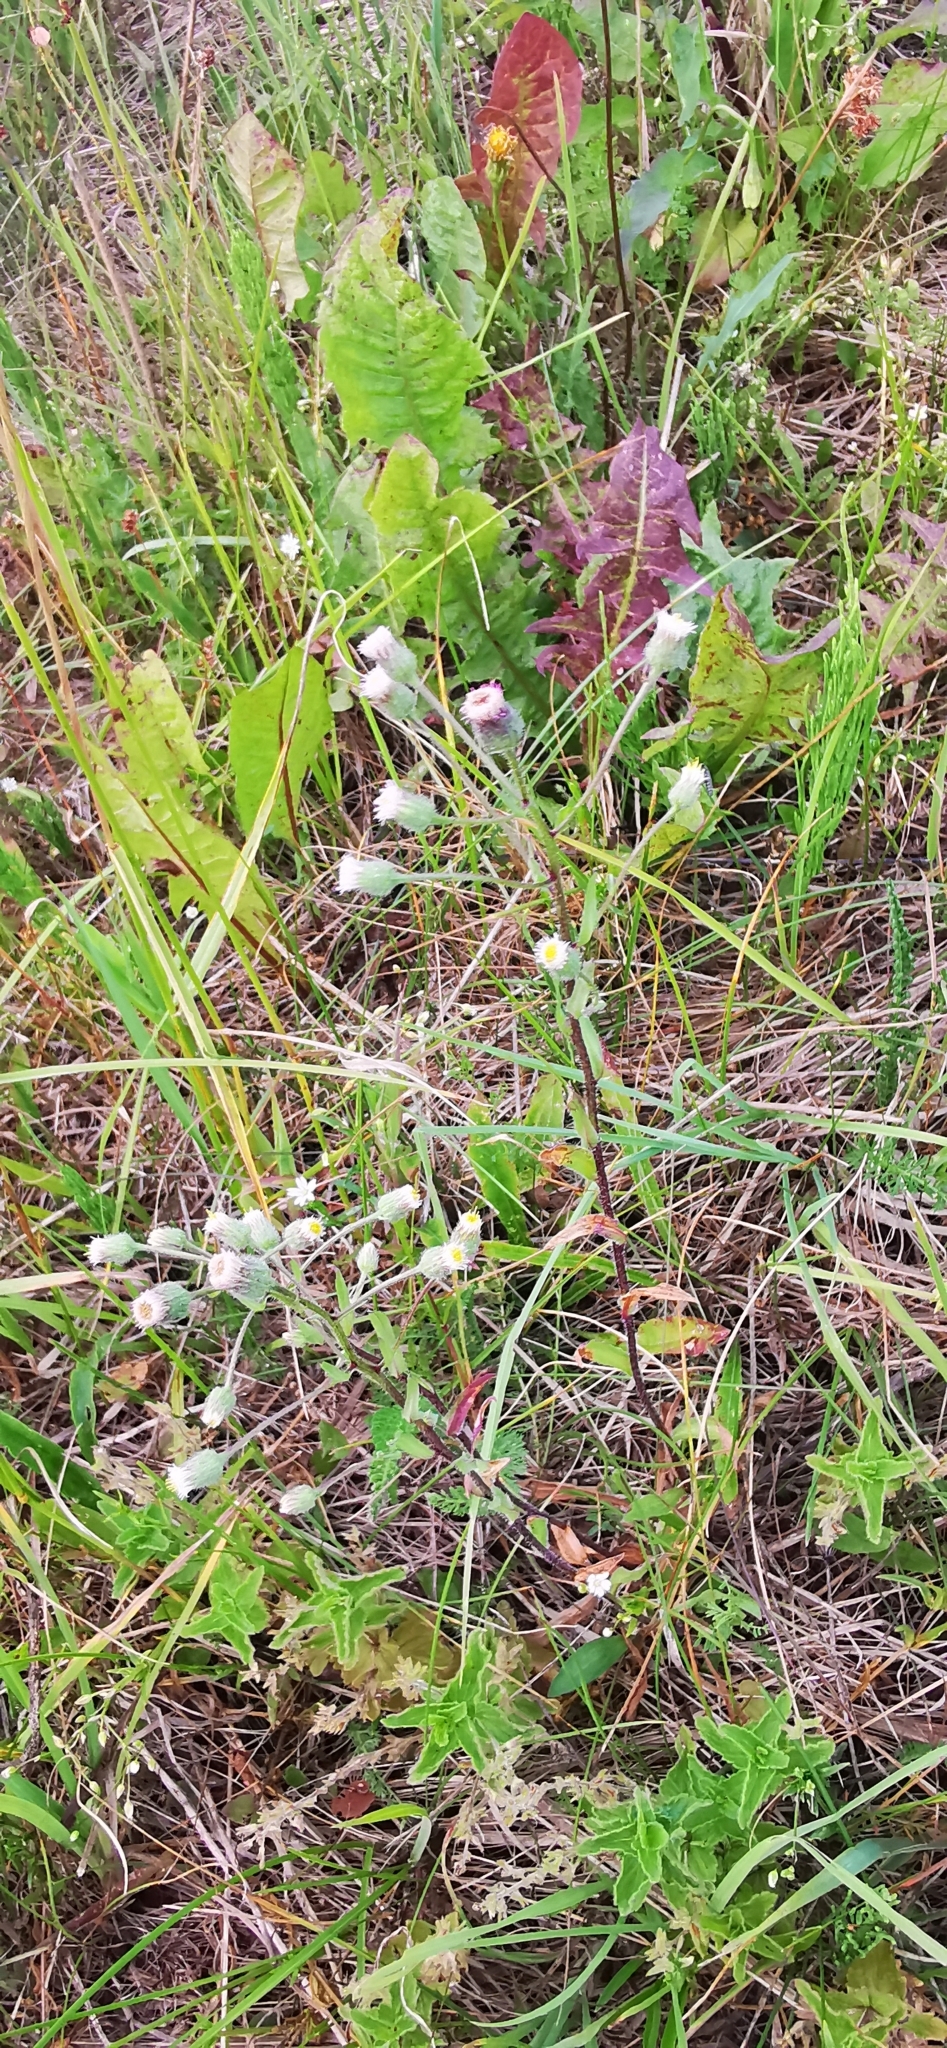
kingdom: Plantae
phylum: Tracheophyta
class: Magnoliopsida
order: Asterales
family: Asteraceae
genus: Erigeron
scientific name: Erigeron acris
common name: Blue fleabane
